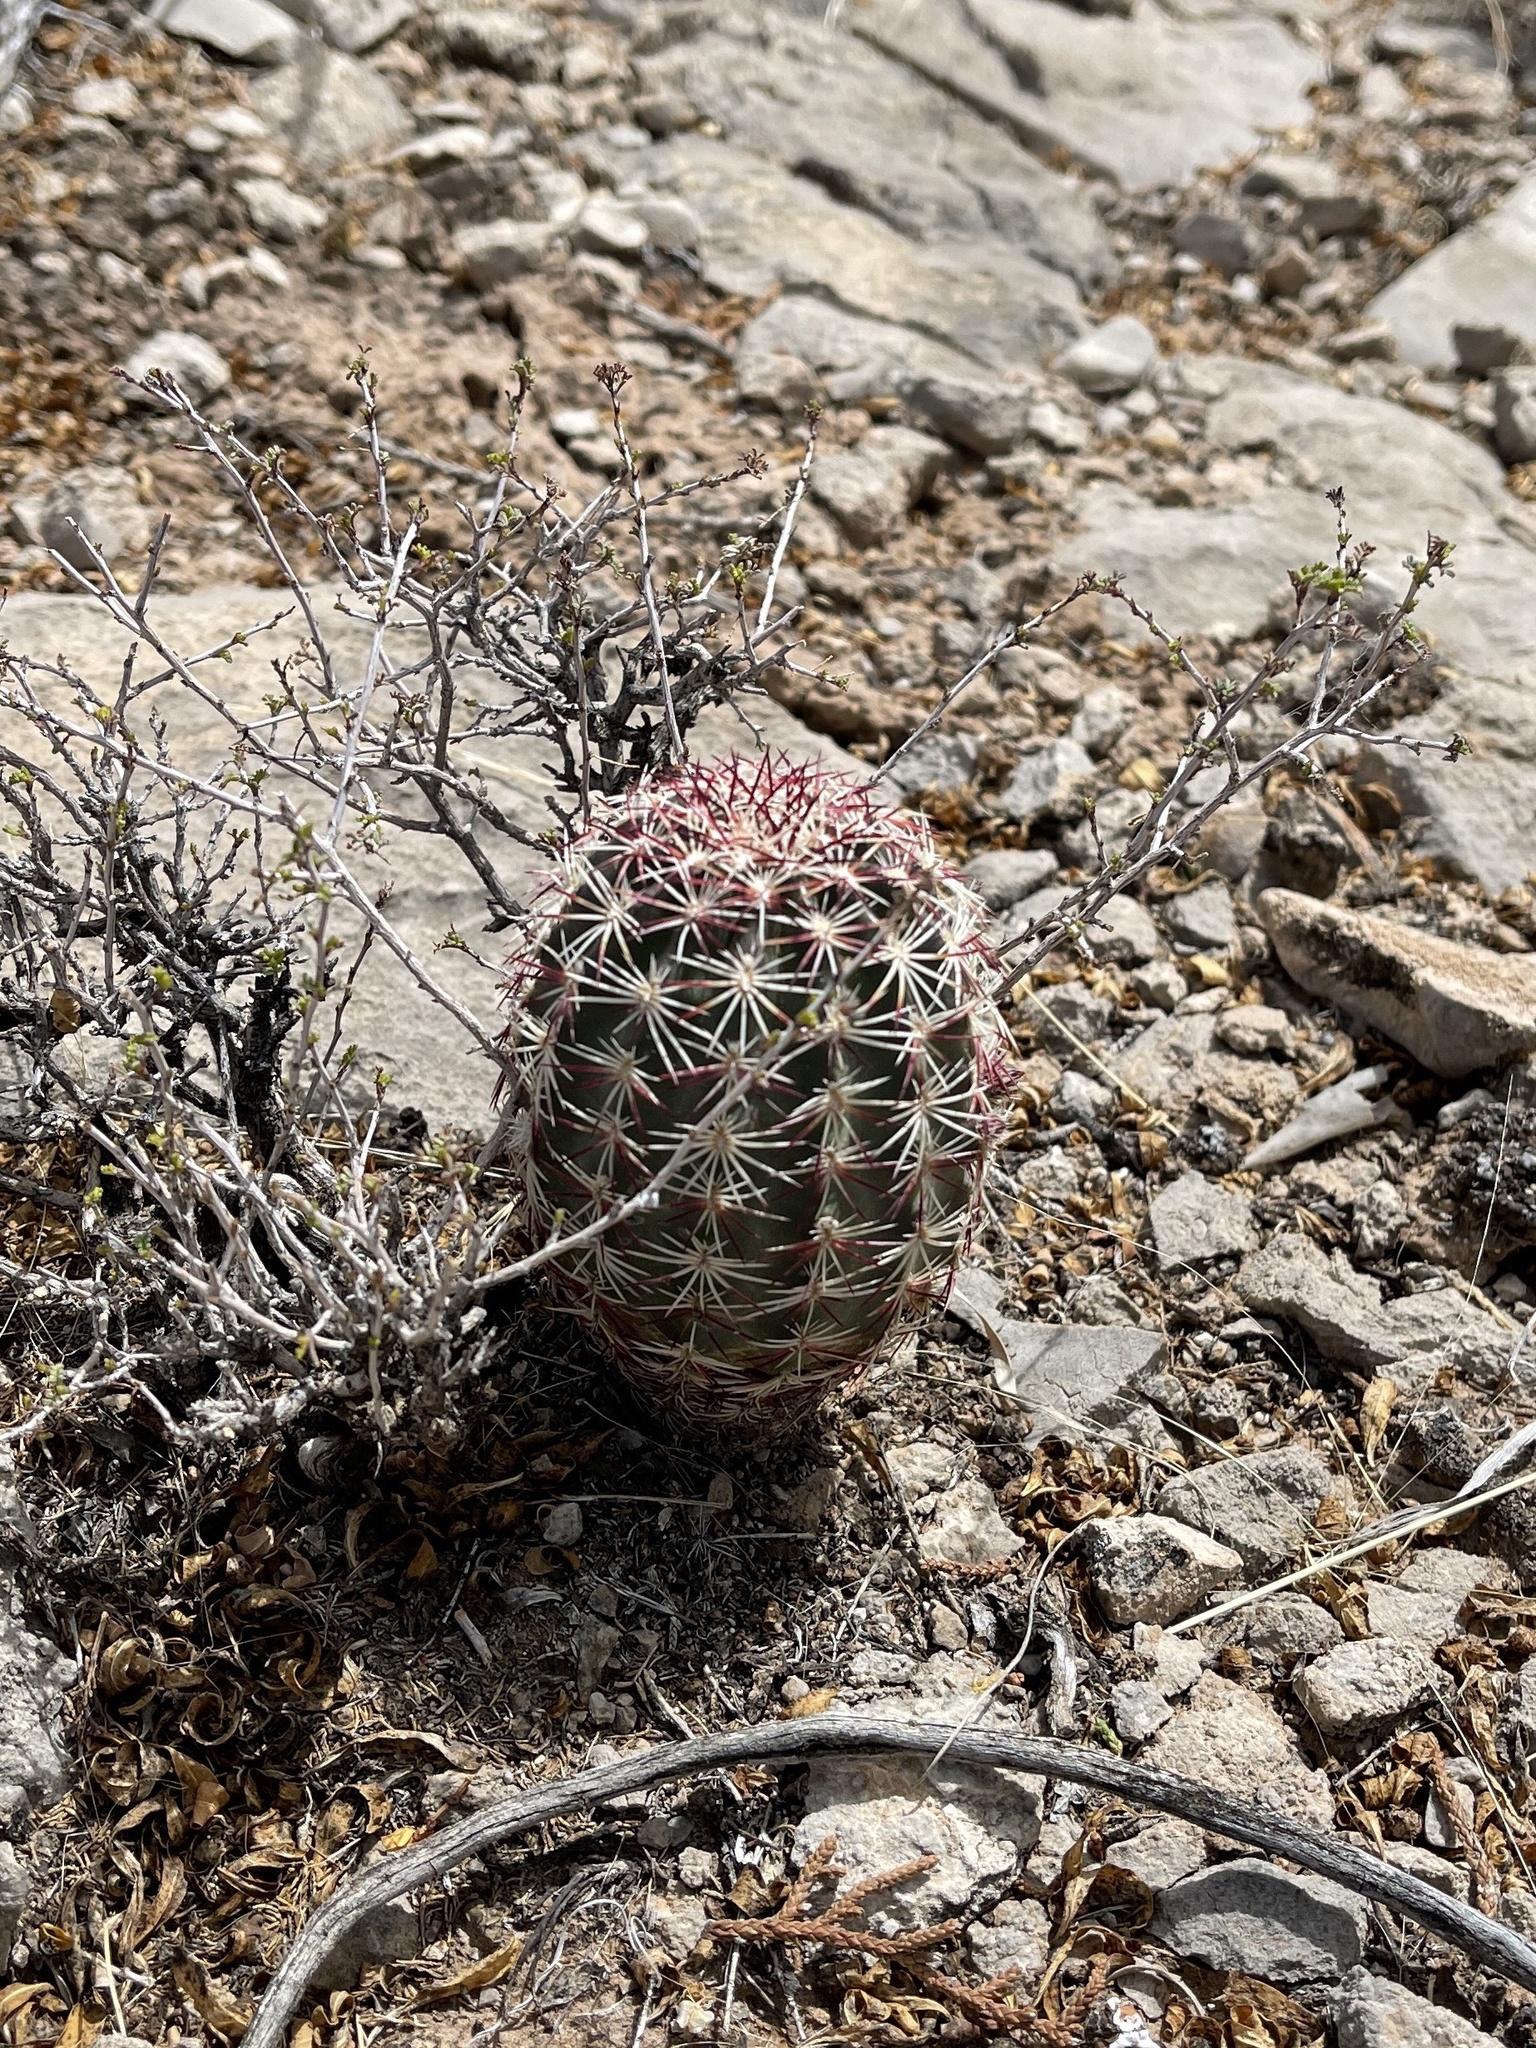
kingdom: Plantae
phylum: Tracheophyta
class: Magnoliopsida
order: Caryophyllales
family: Cactaceae
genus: Echinocereus
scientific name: Echinocereus viridiflorus
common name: Nylon hedgehog cactus
